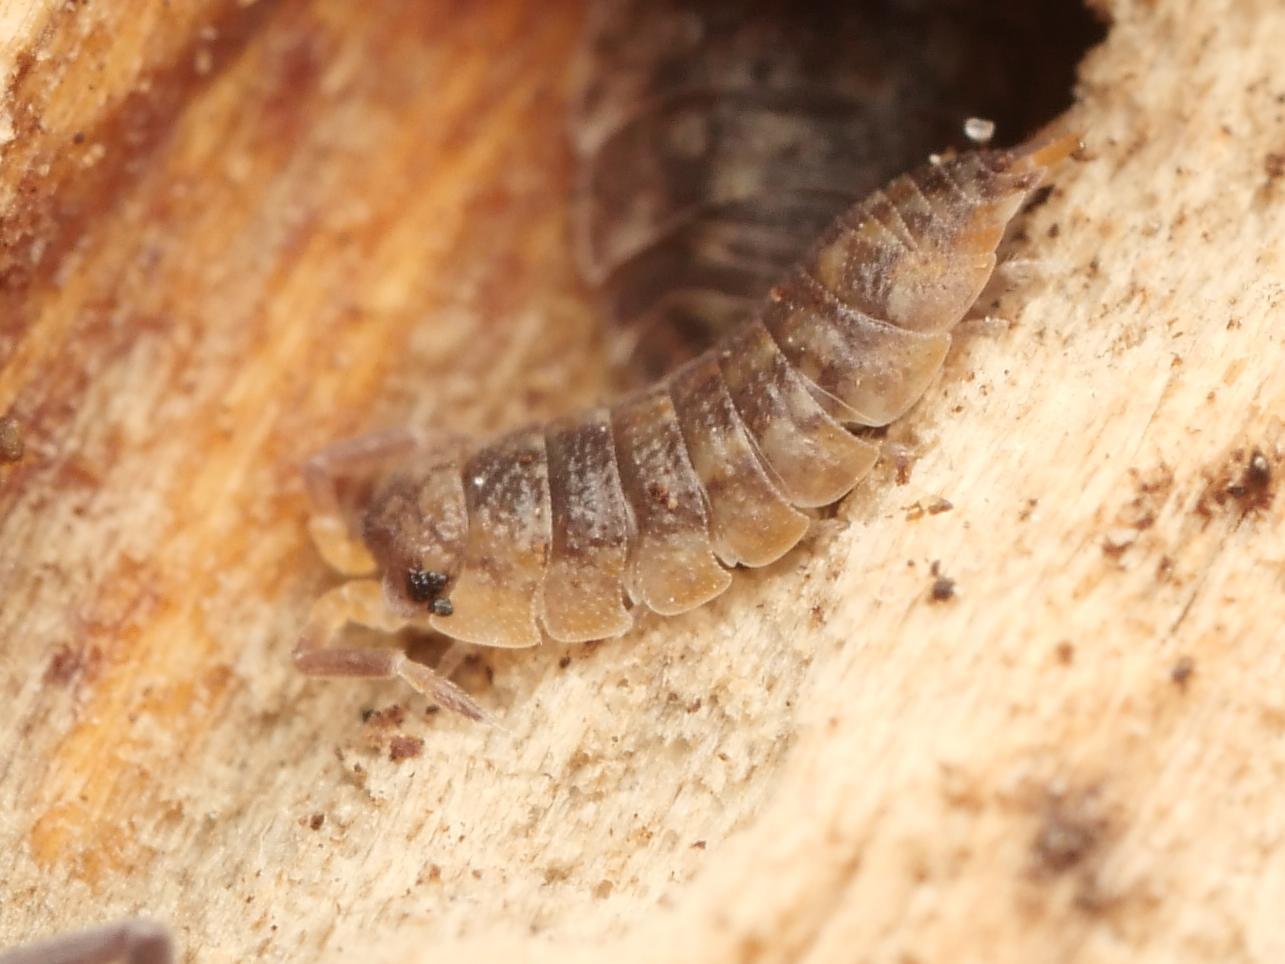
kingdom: Animalia
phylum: Arthropoda
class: Malacostraca
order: Isopoda
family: Porcellionidae
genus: Porcellio
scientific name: Porcellio scaber
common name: Common rough woodlouse
